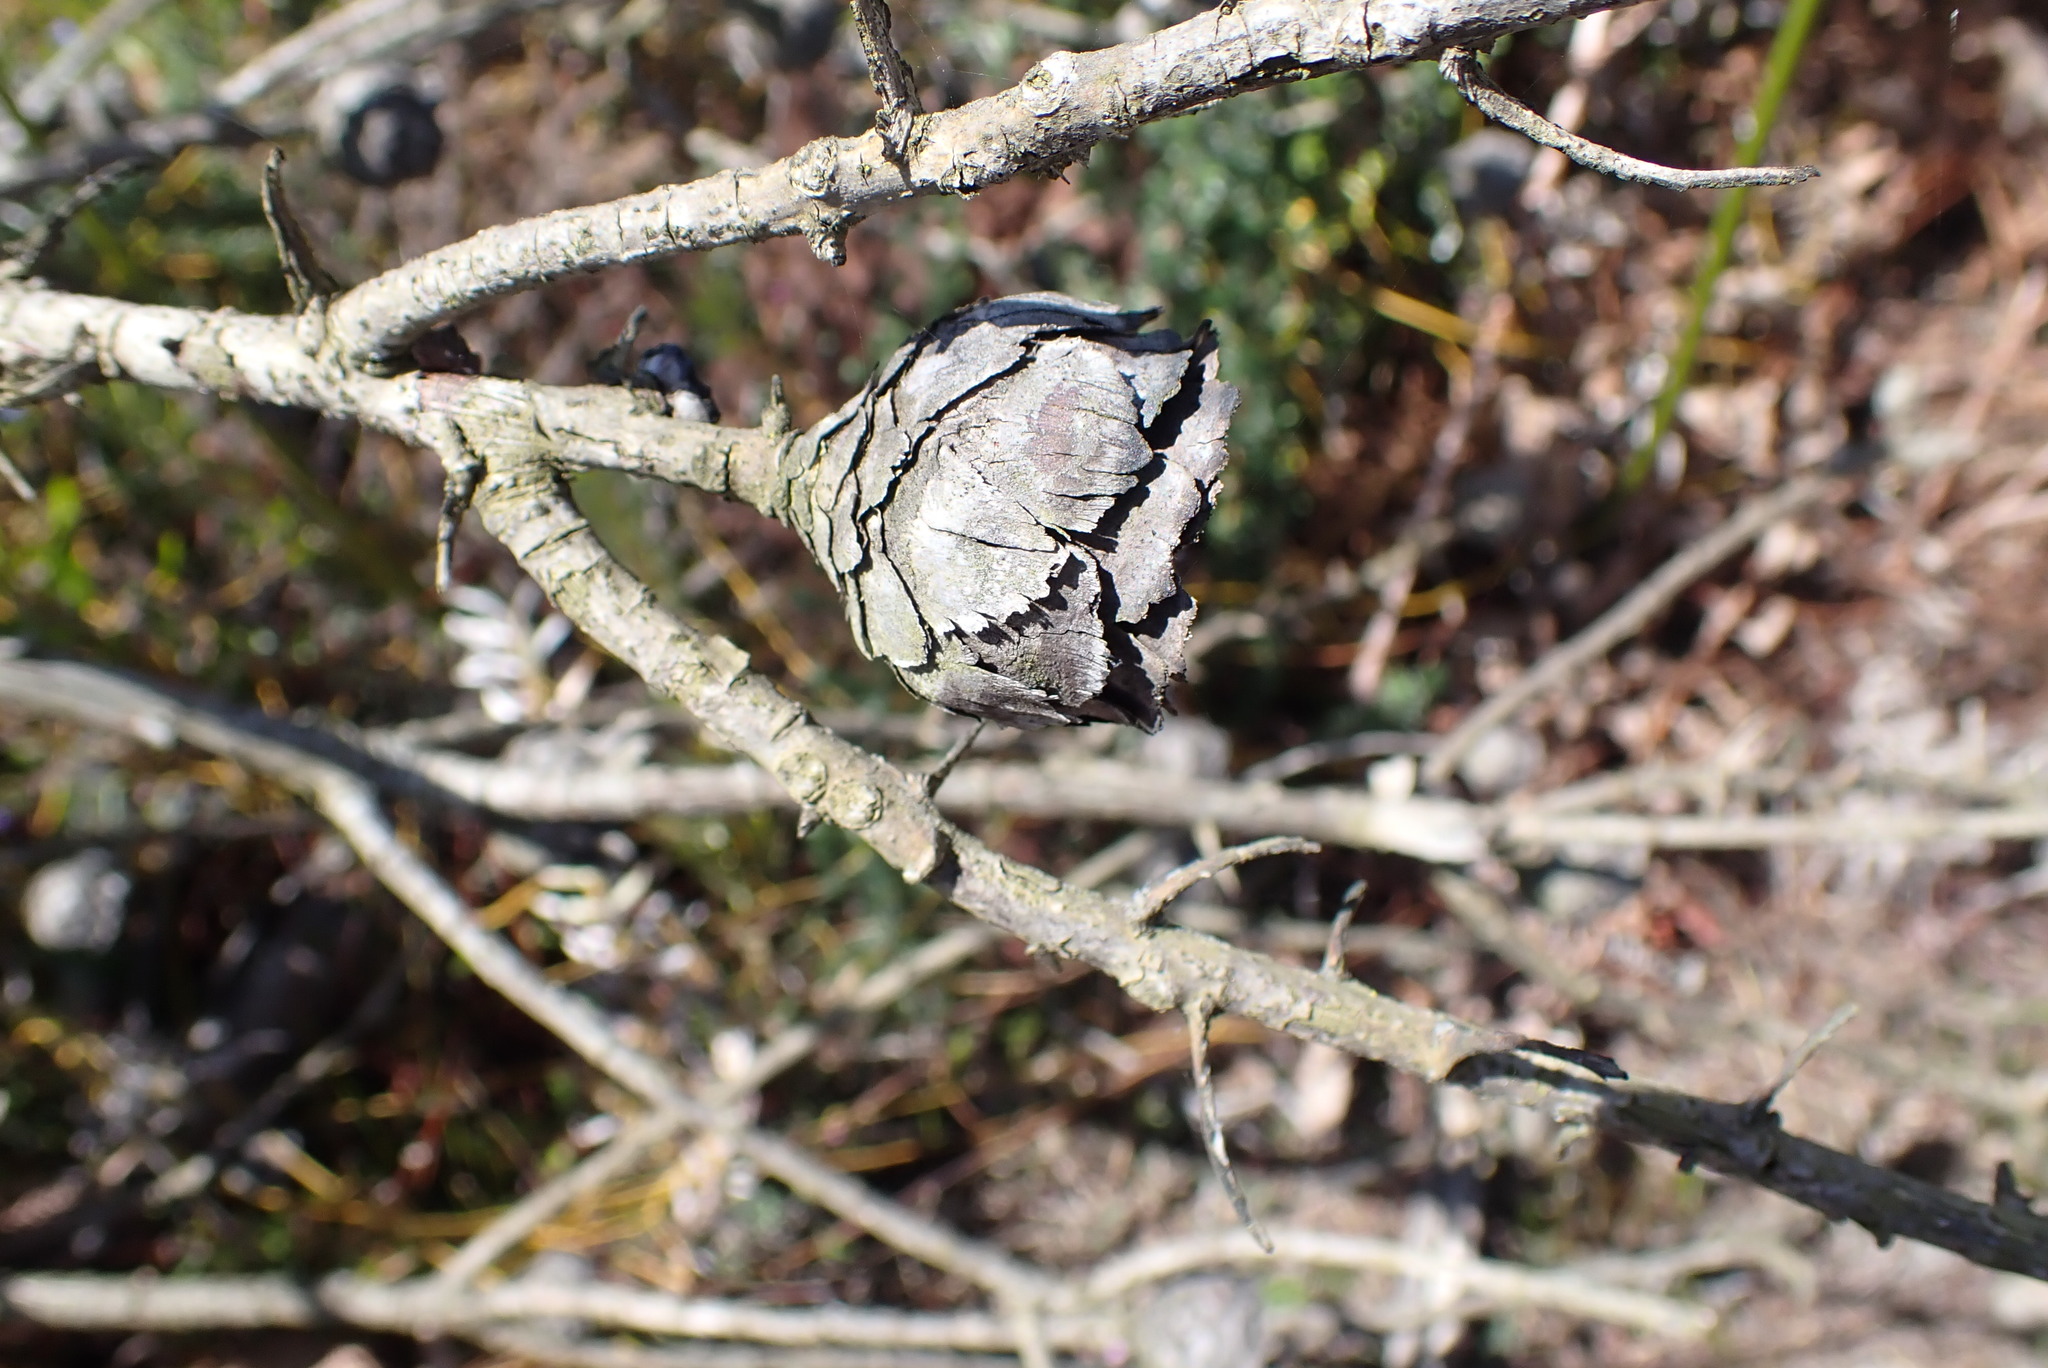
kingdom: Plantae
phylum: Tracheophyta
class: Magnoliopsida
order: Proteales
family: Proteaceae
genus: Protea
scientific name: Protea aurea
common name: Shuttlecock sugarbush
